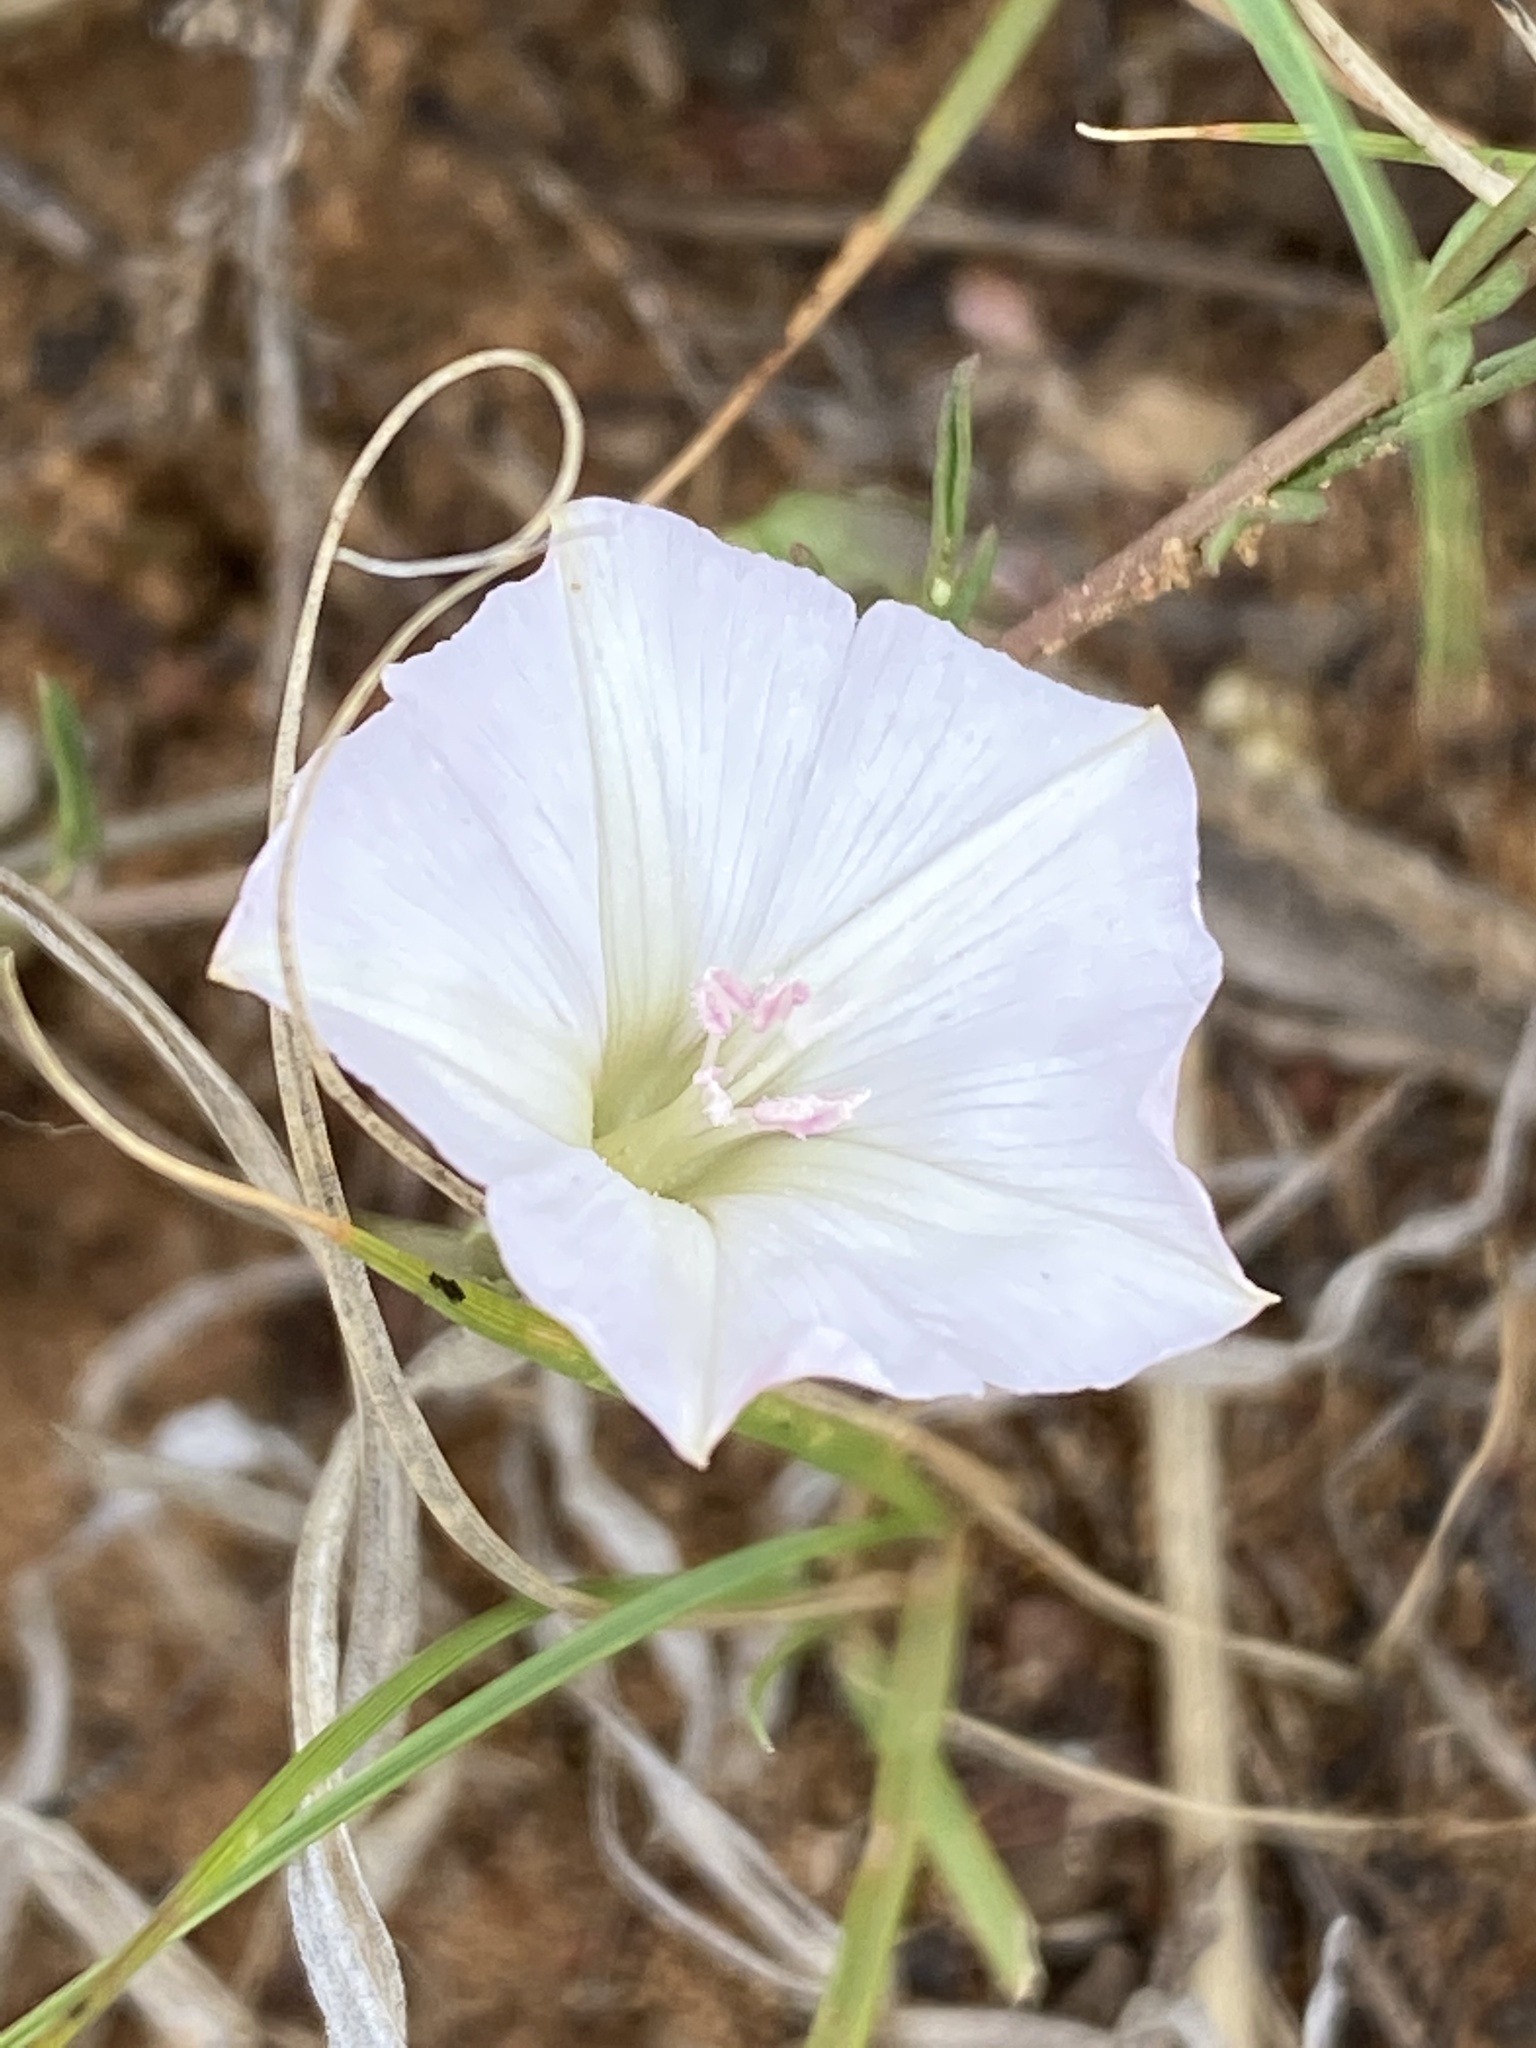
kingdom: Plantae
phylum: Tracheophyta
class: Magnoliopsida
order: Solanales
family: Convolvulaceae
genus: Convolvulus
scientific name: Convolvulus dregeanus
